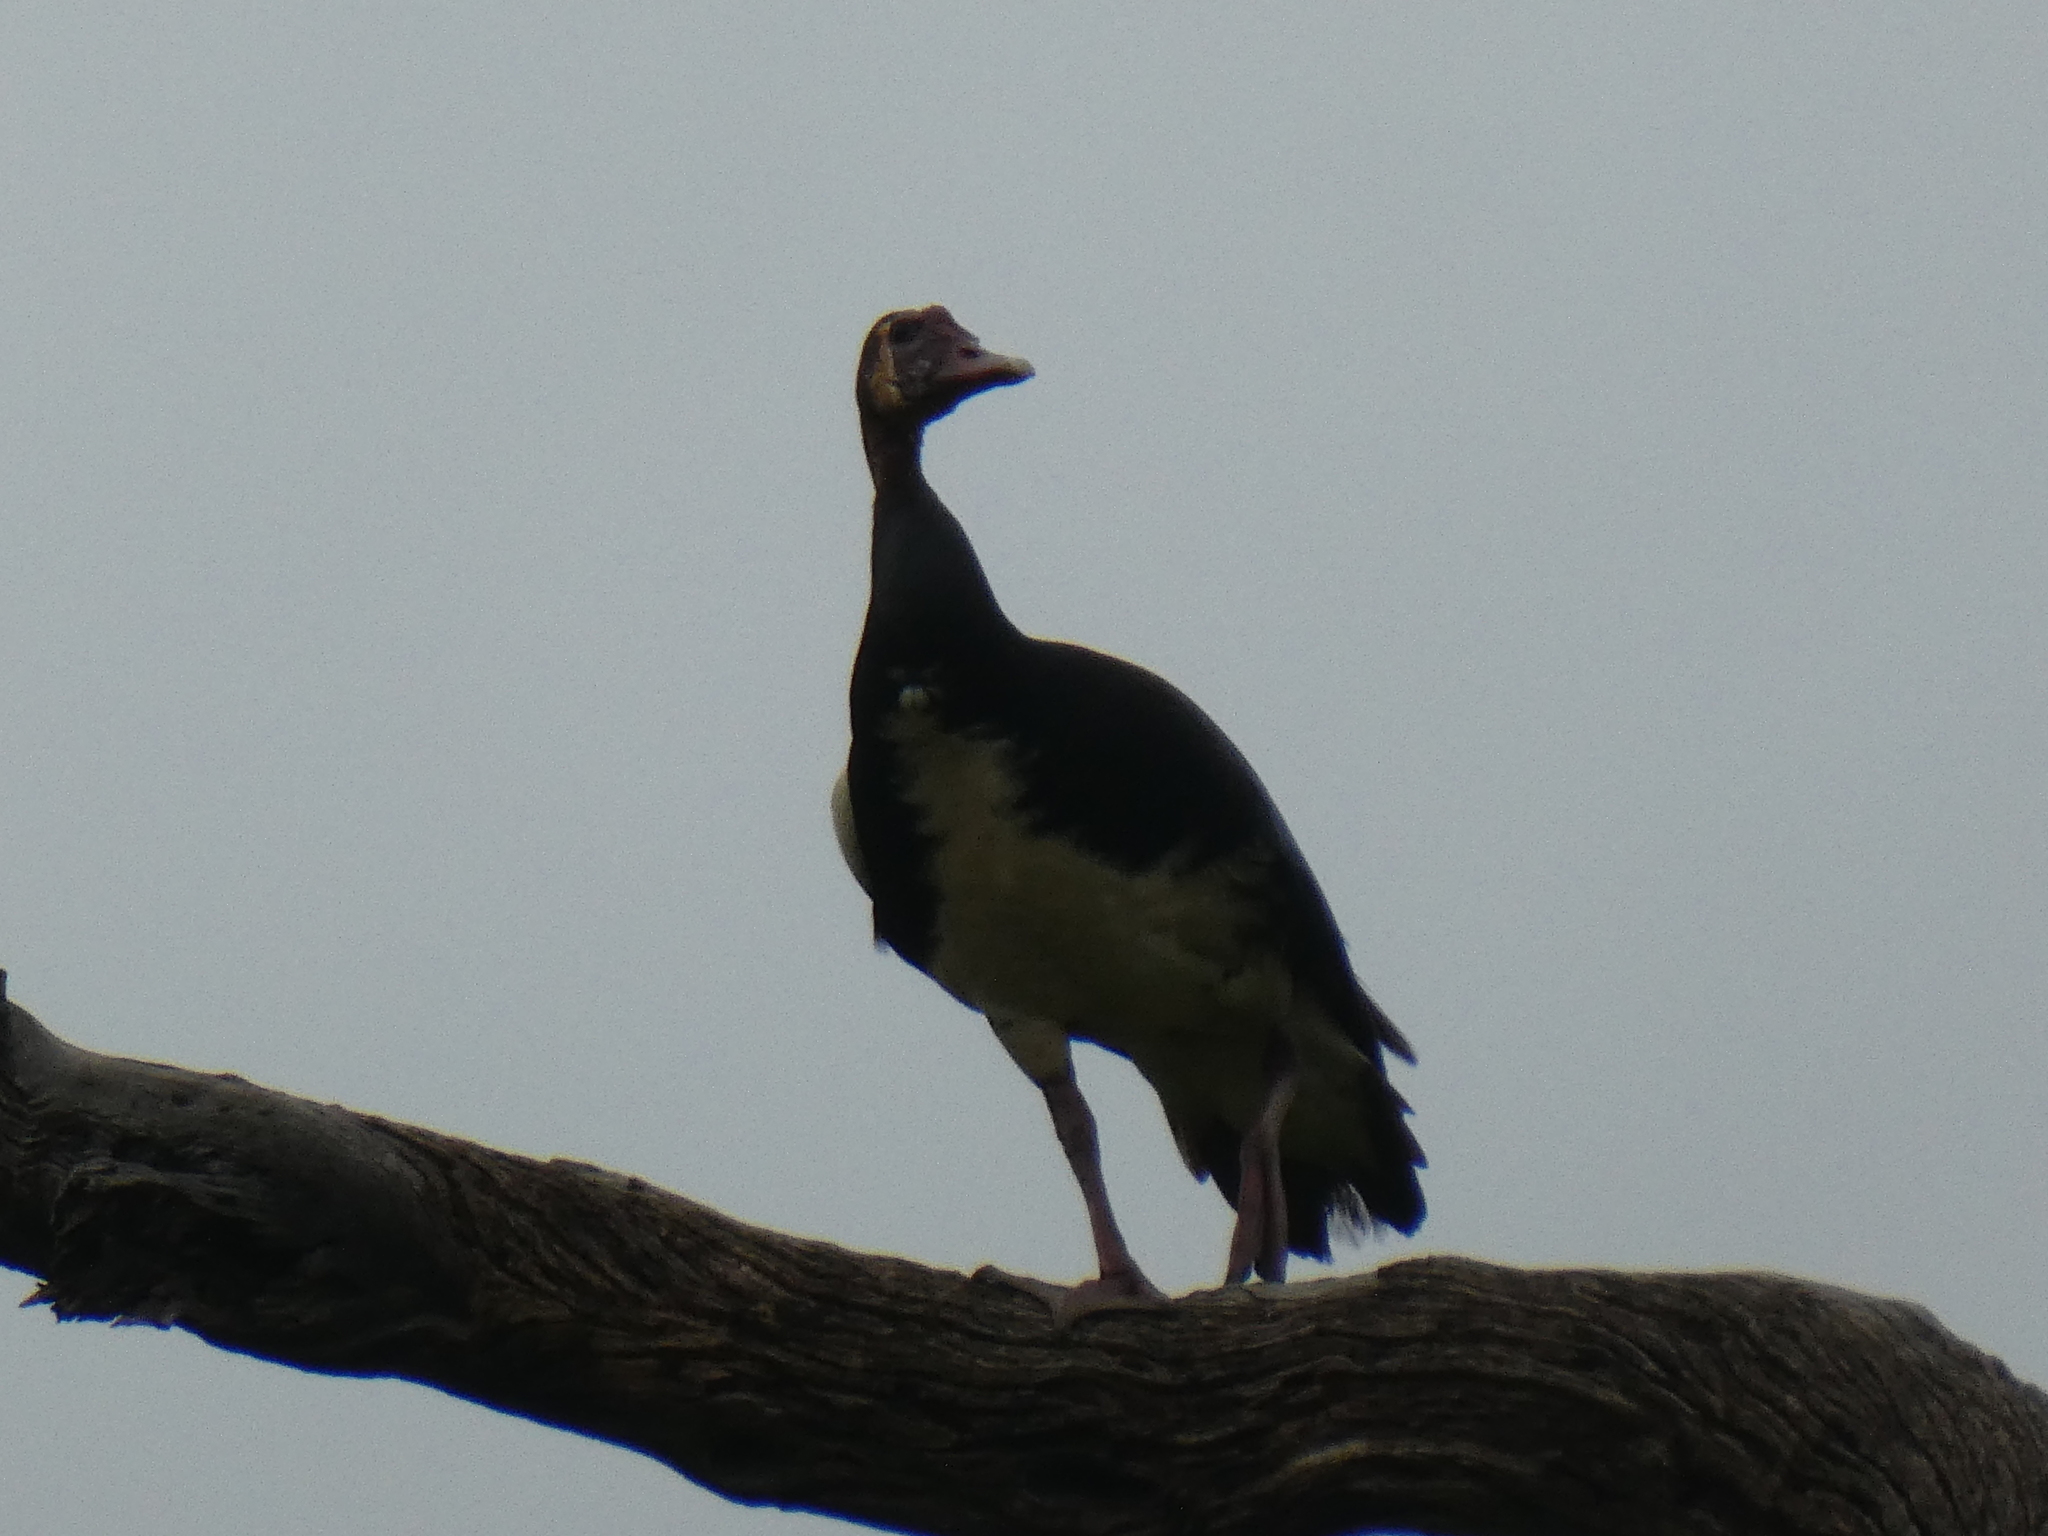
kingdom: Animalia
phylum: Chordata
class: Aves
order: Anseriformes
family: Anatidae
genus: Plectropterus
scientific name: Plectropterus gambensis
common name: Spur-winged goose
